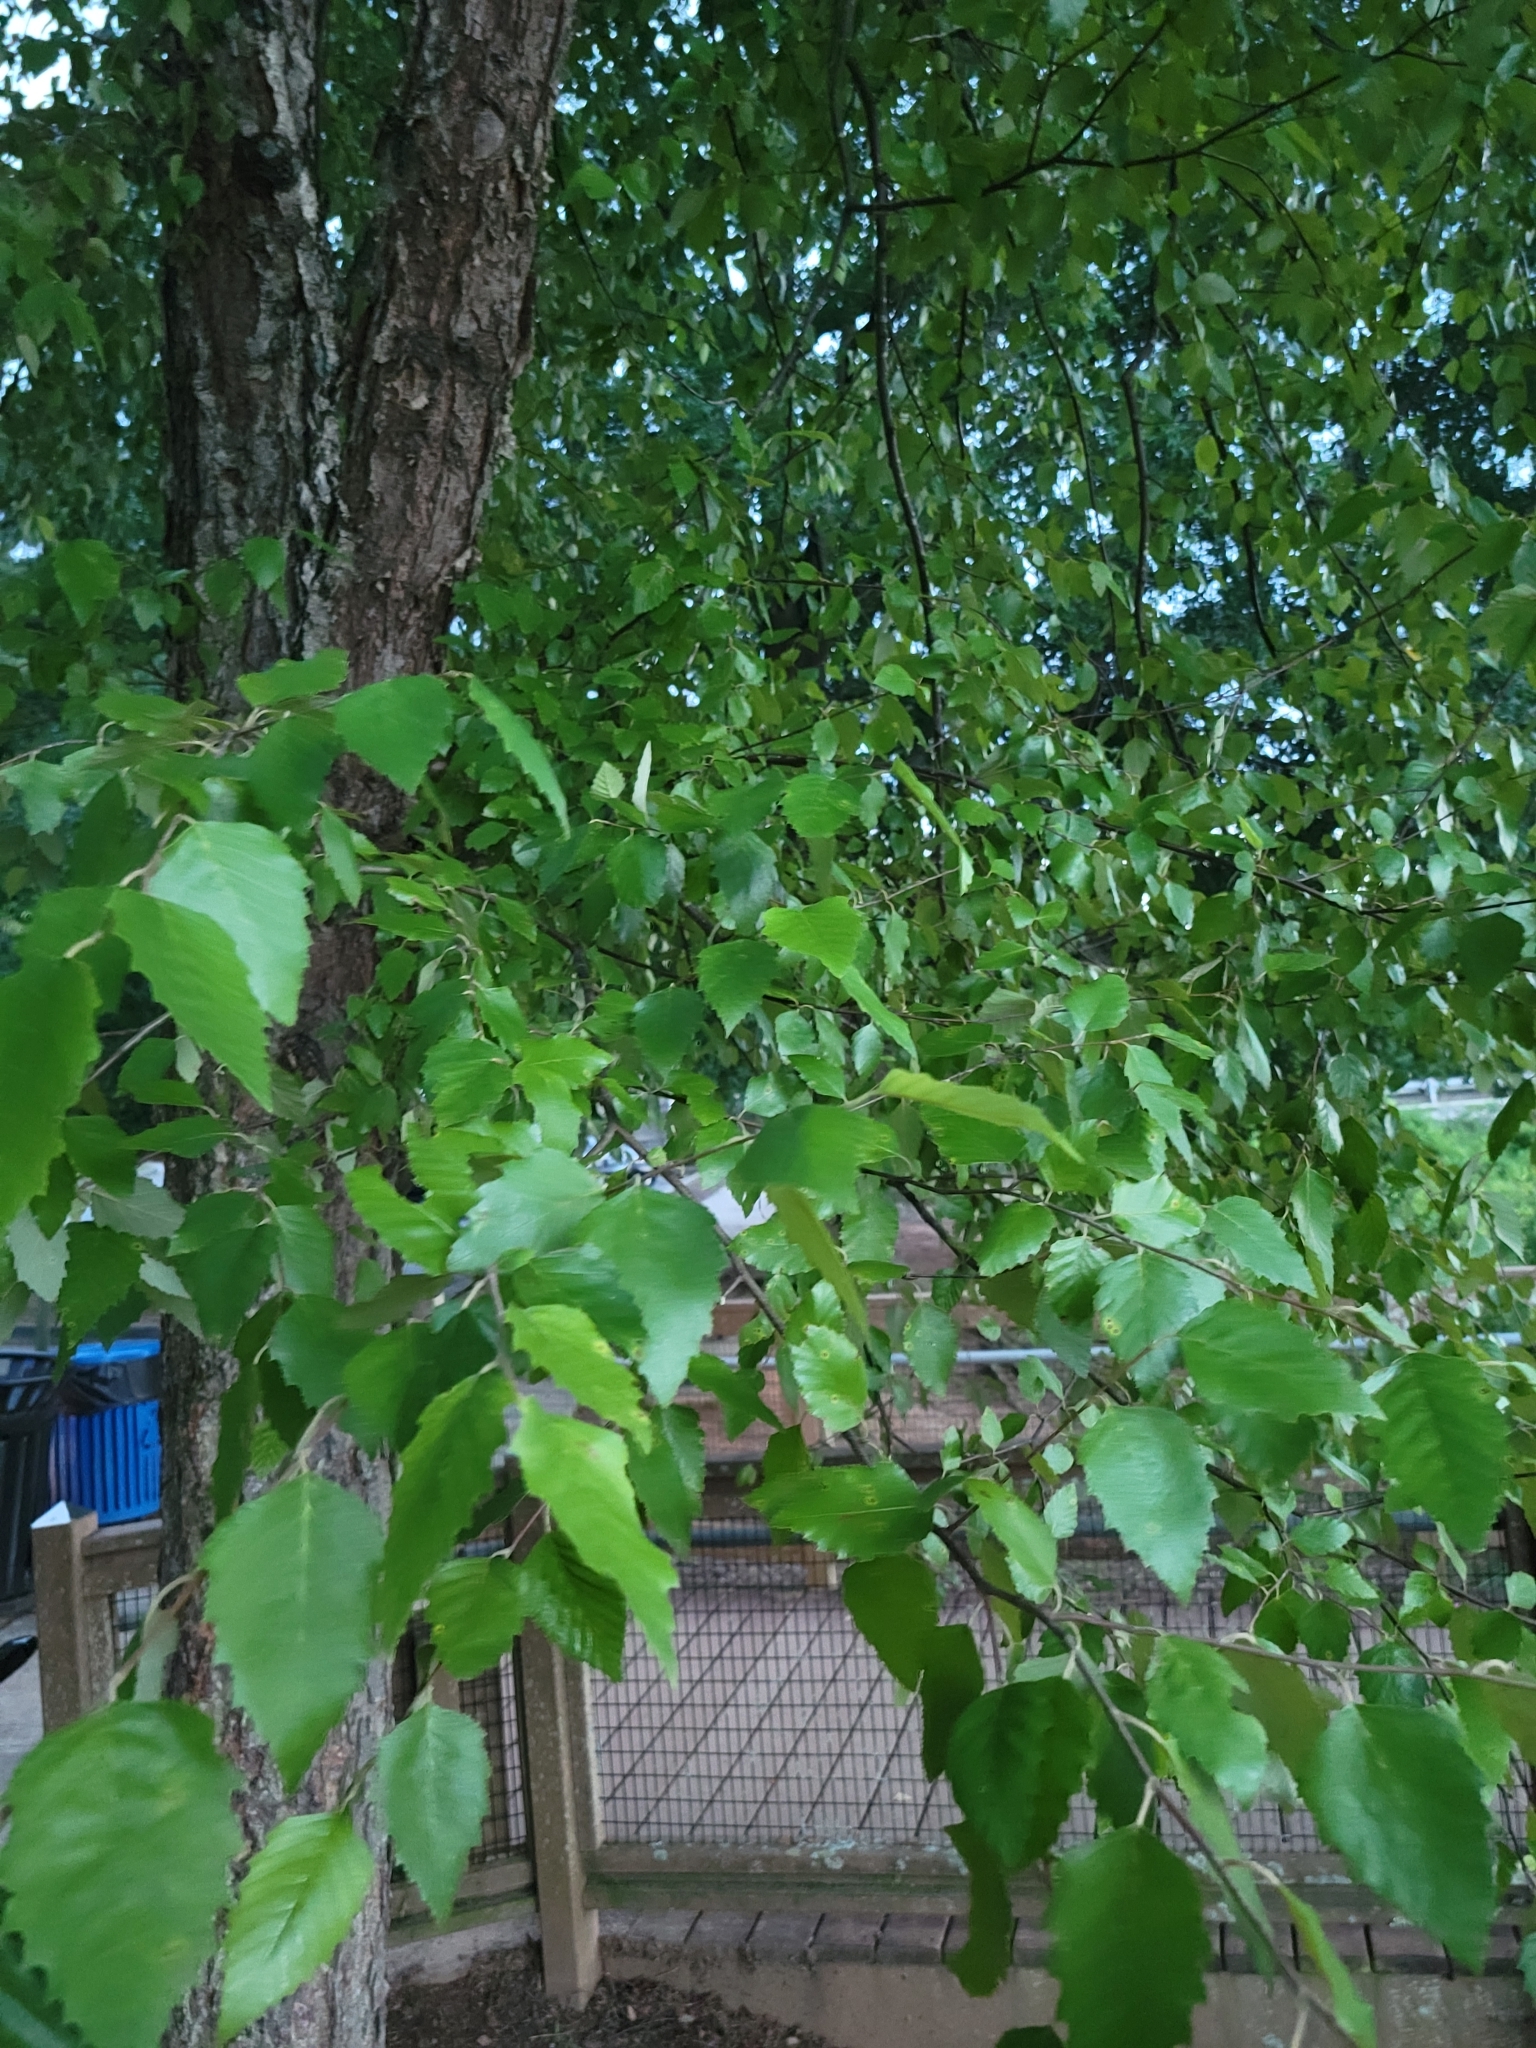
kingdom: Plantae
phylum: Tracheophyta
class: Magnoliopsida
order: Fagales
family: Betulaceae
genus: Betula
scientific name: Betula nigra
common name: Black birch
